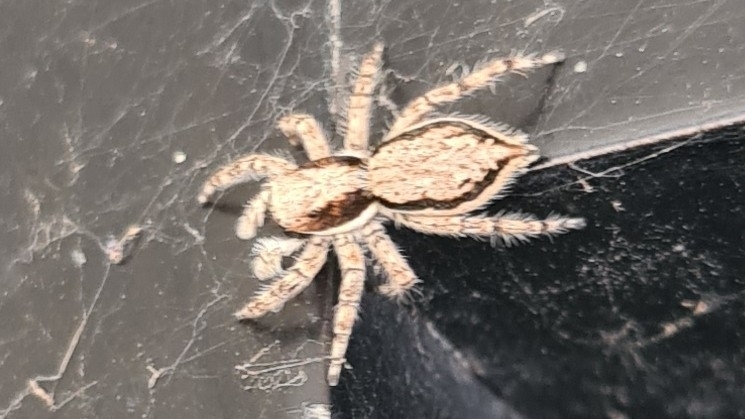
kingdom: Animalia
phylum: Arthropoda
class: Arachnida
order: Araneae
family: Salticidae
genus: Menemerus
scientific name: Menemerus bivittatus
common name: Gray wall jumper
